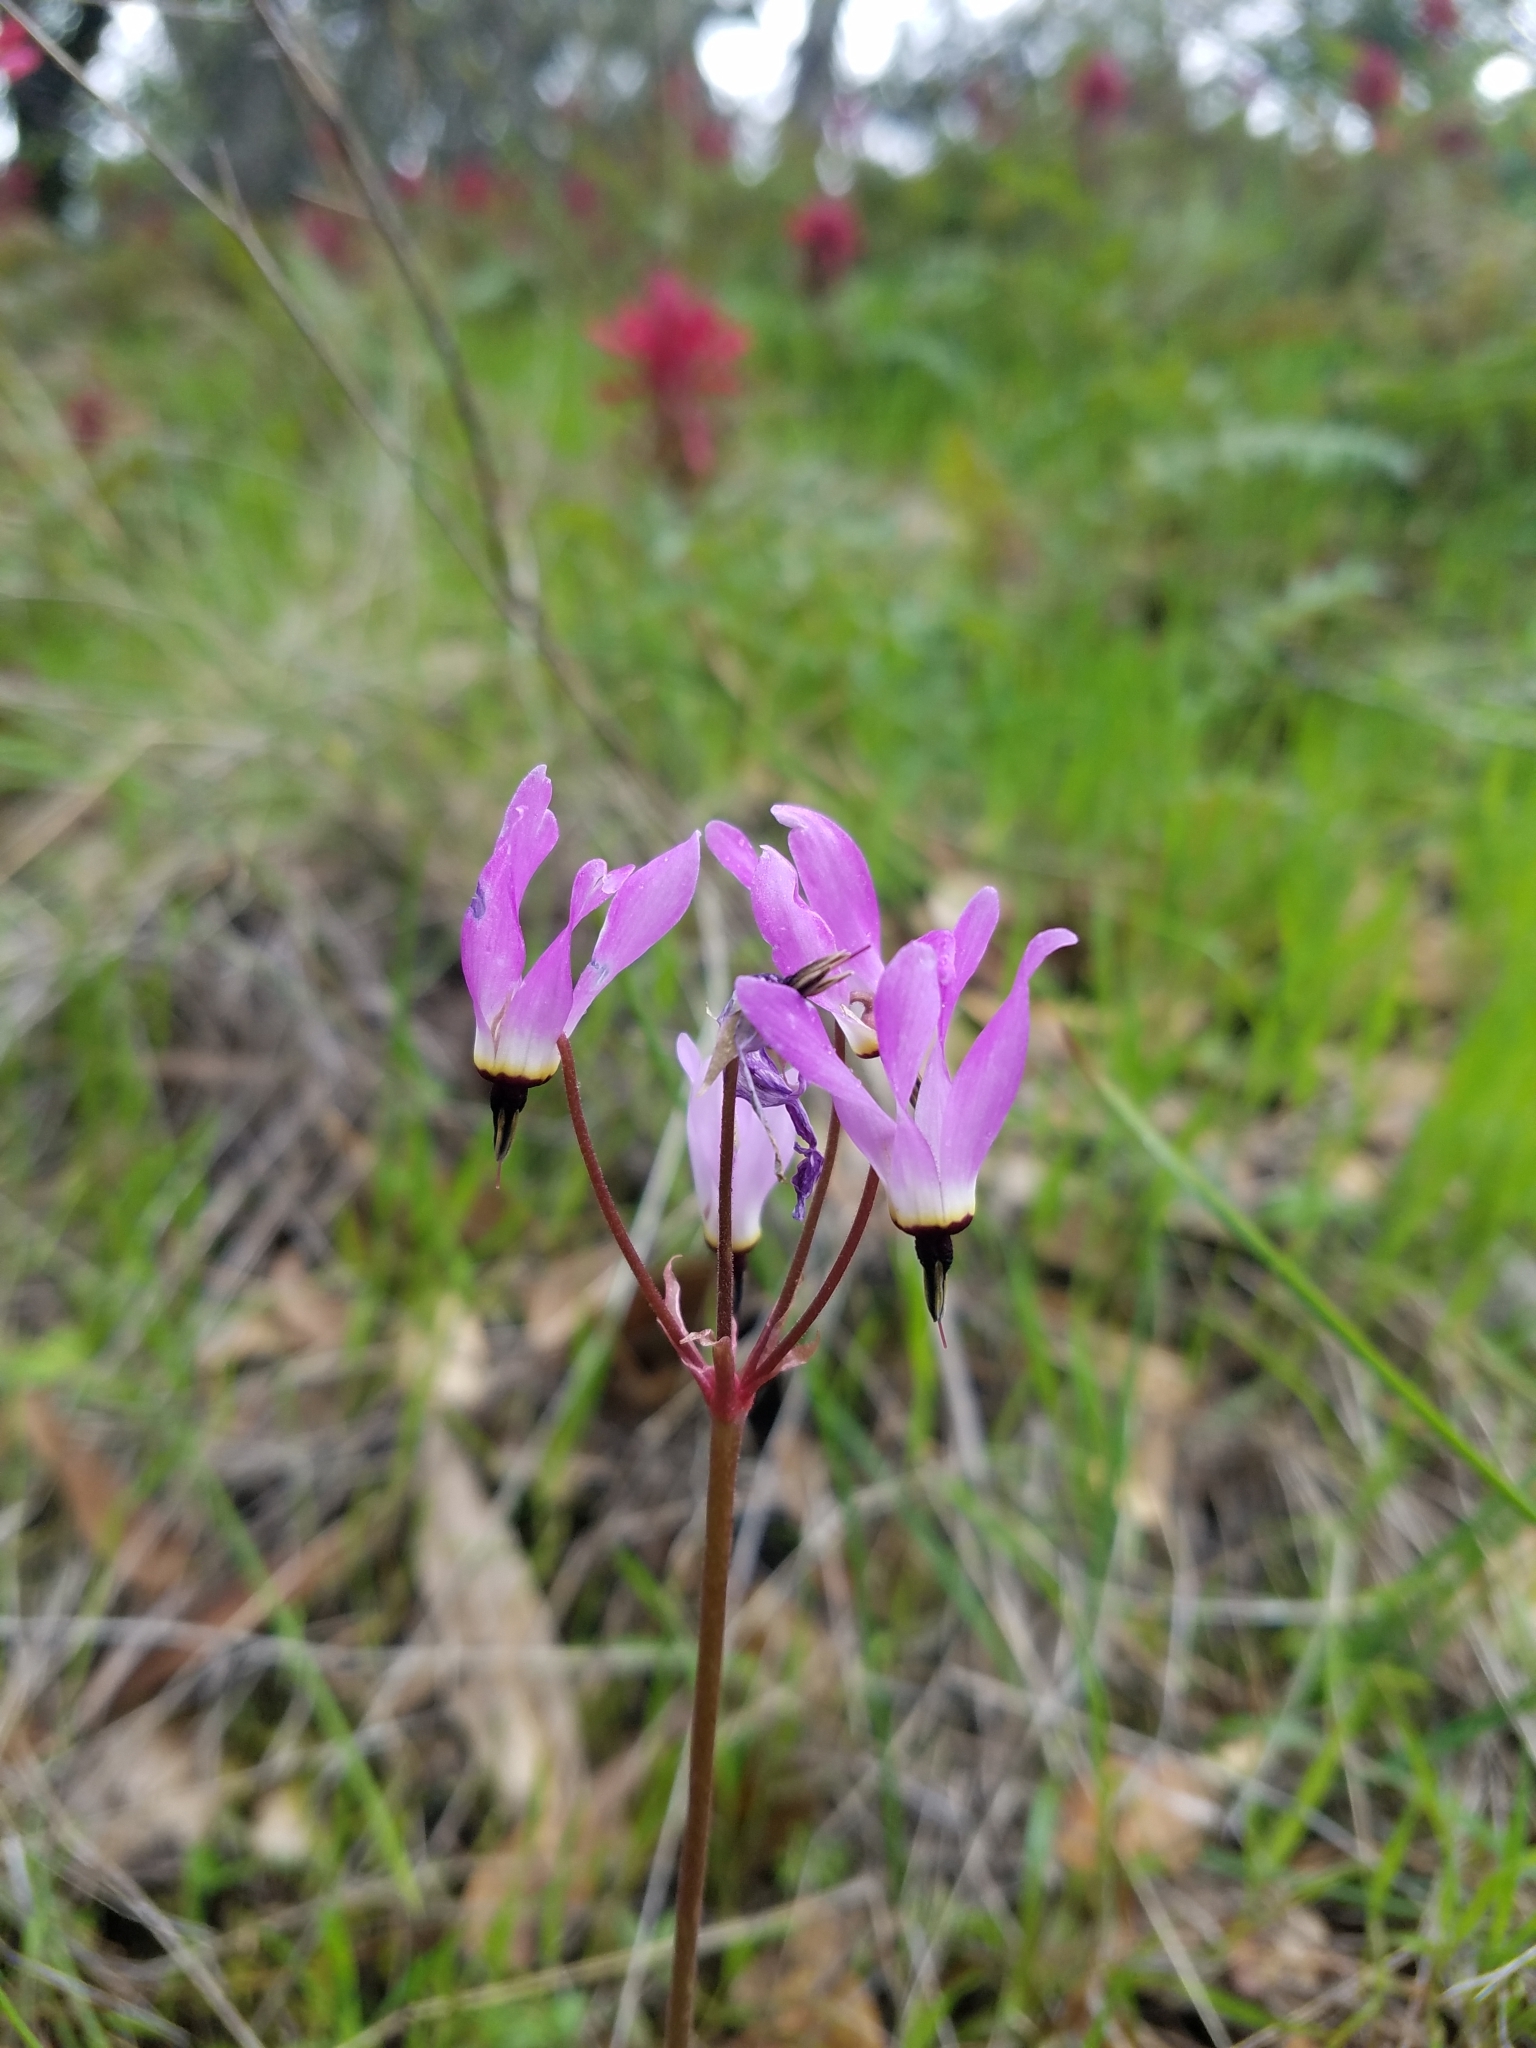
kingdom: Plantae
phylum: Tracheophyta
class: Magnoliopsida
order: Ericales
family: Primulaceae
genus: Dodecatheon
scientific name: Dodecatheon hendersonii
